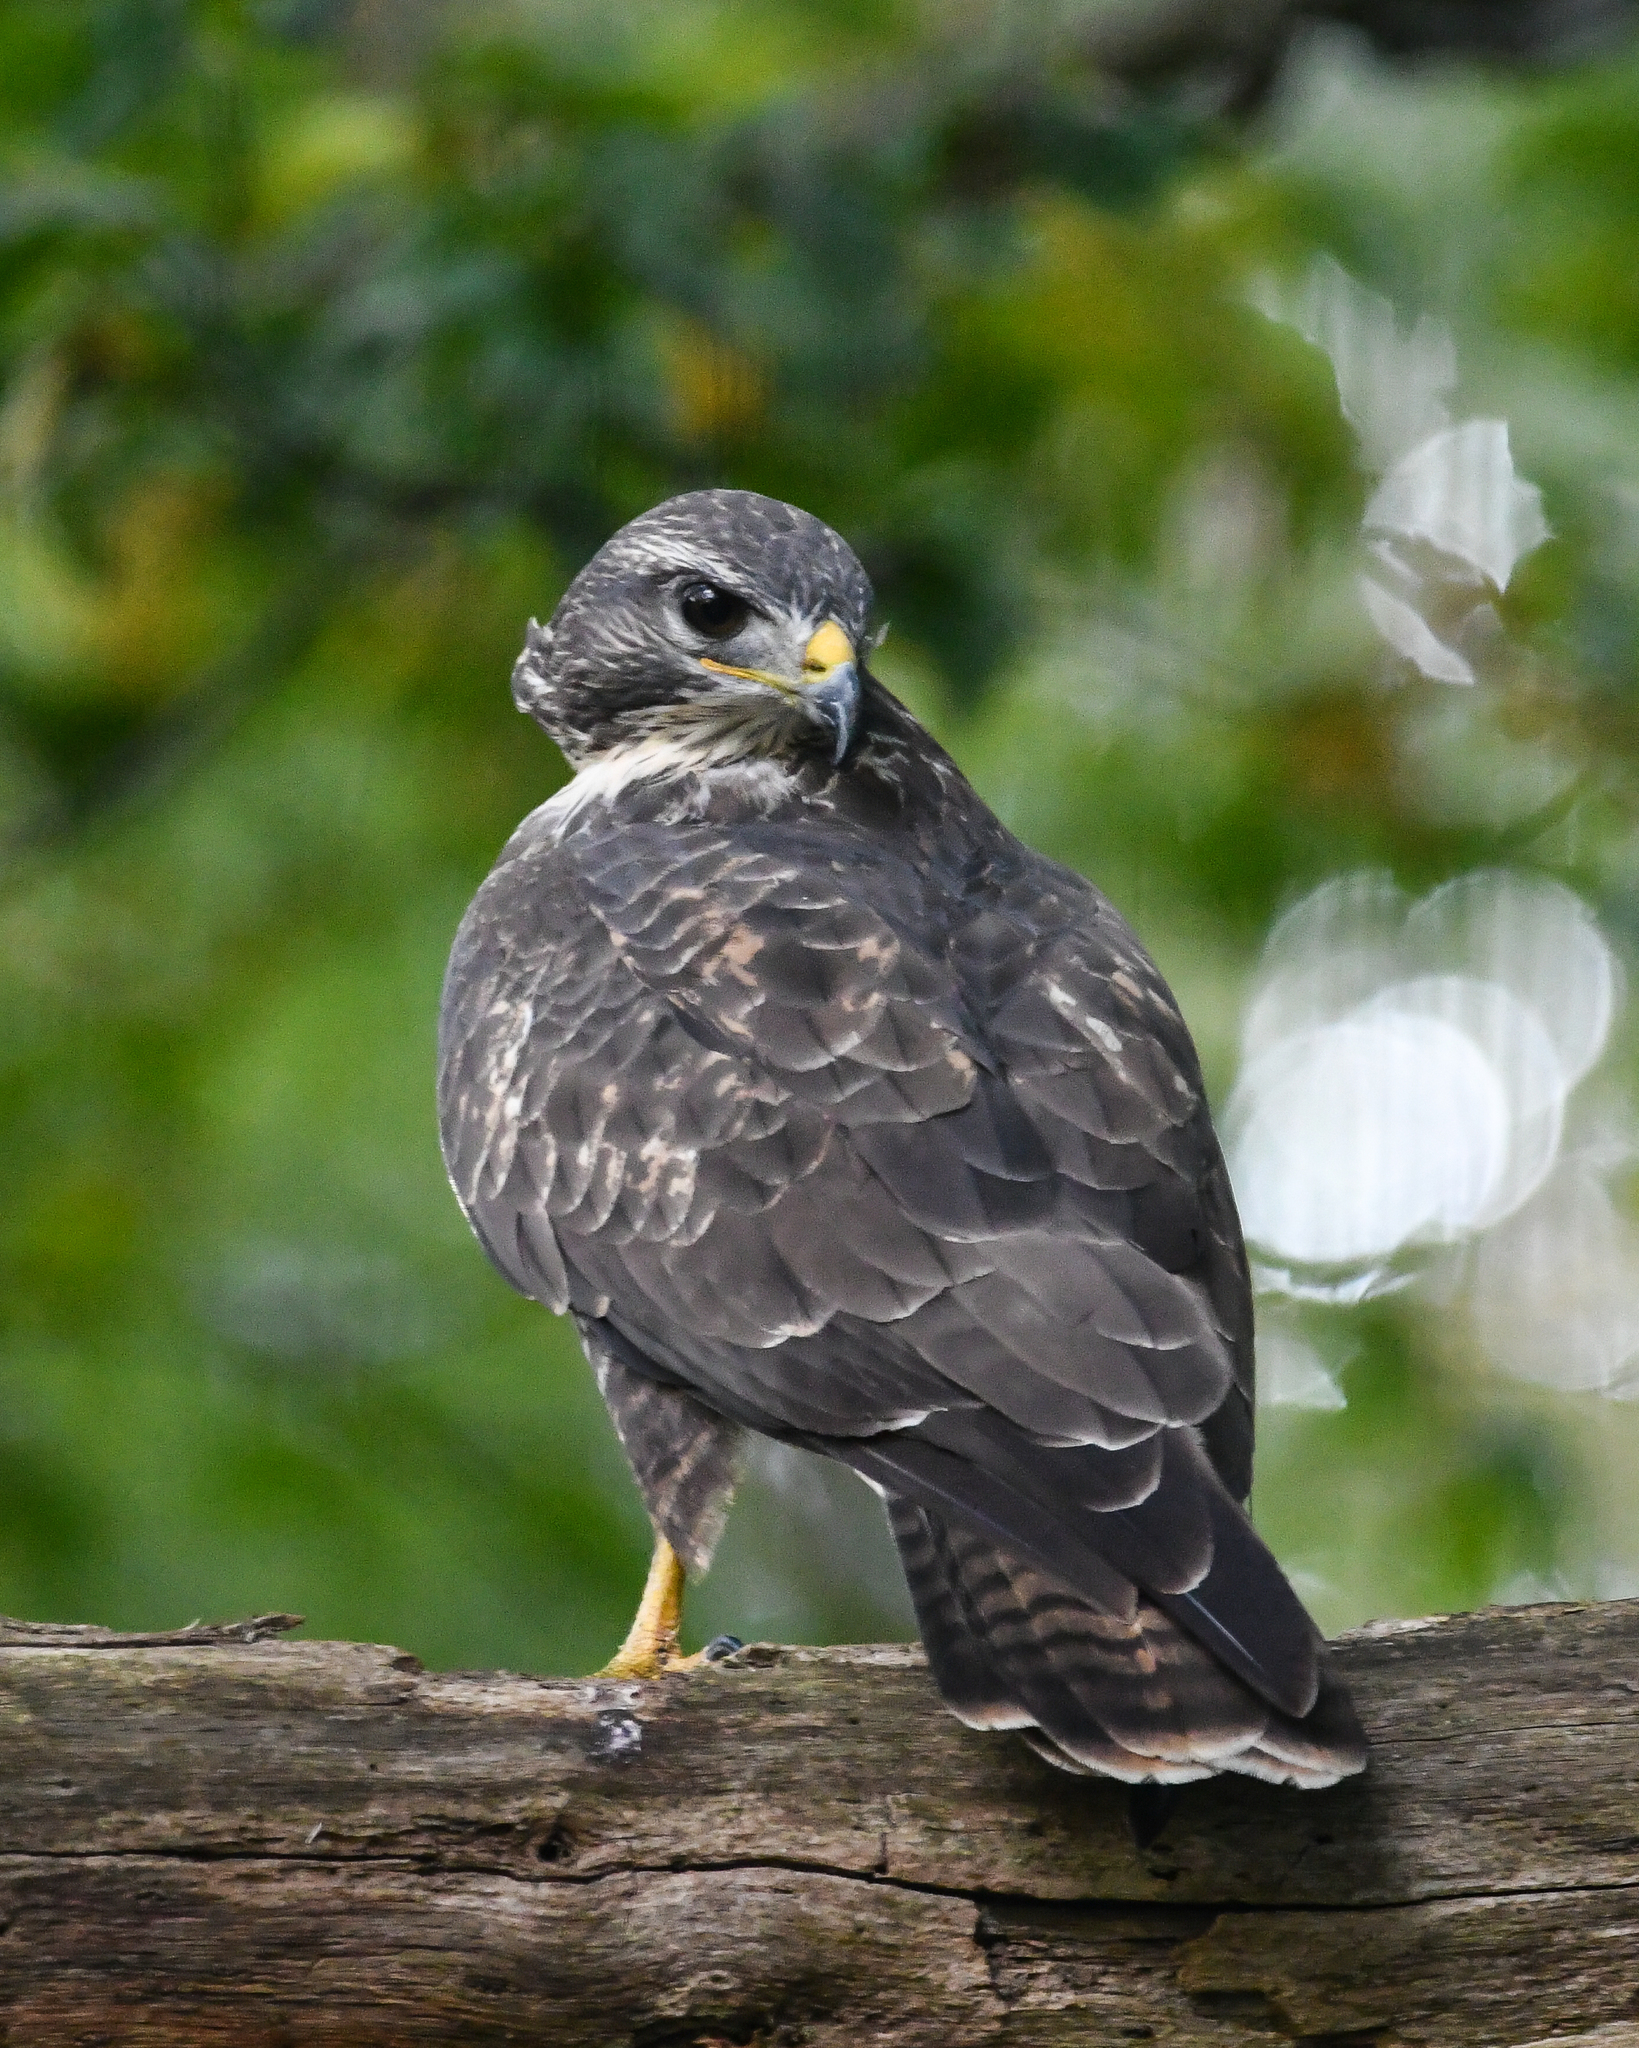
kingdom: Animalia
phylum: Chordata
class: Aves
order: Accipitriformes
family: Accipitridae
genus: Buteo
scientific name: Buteo buteo
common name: Common buzzard
